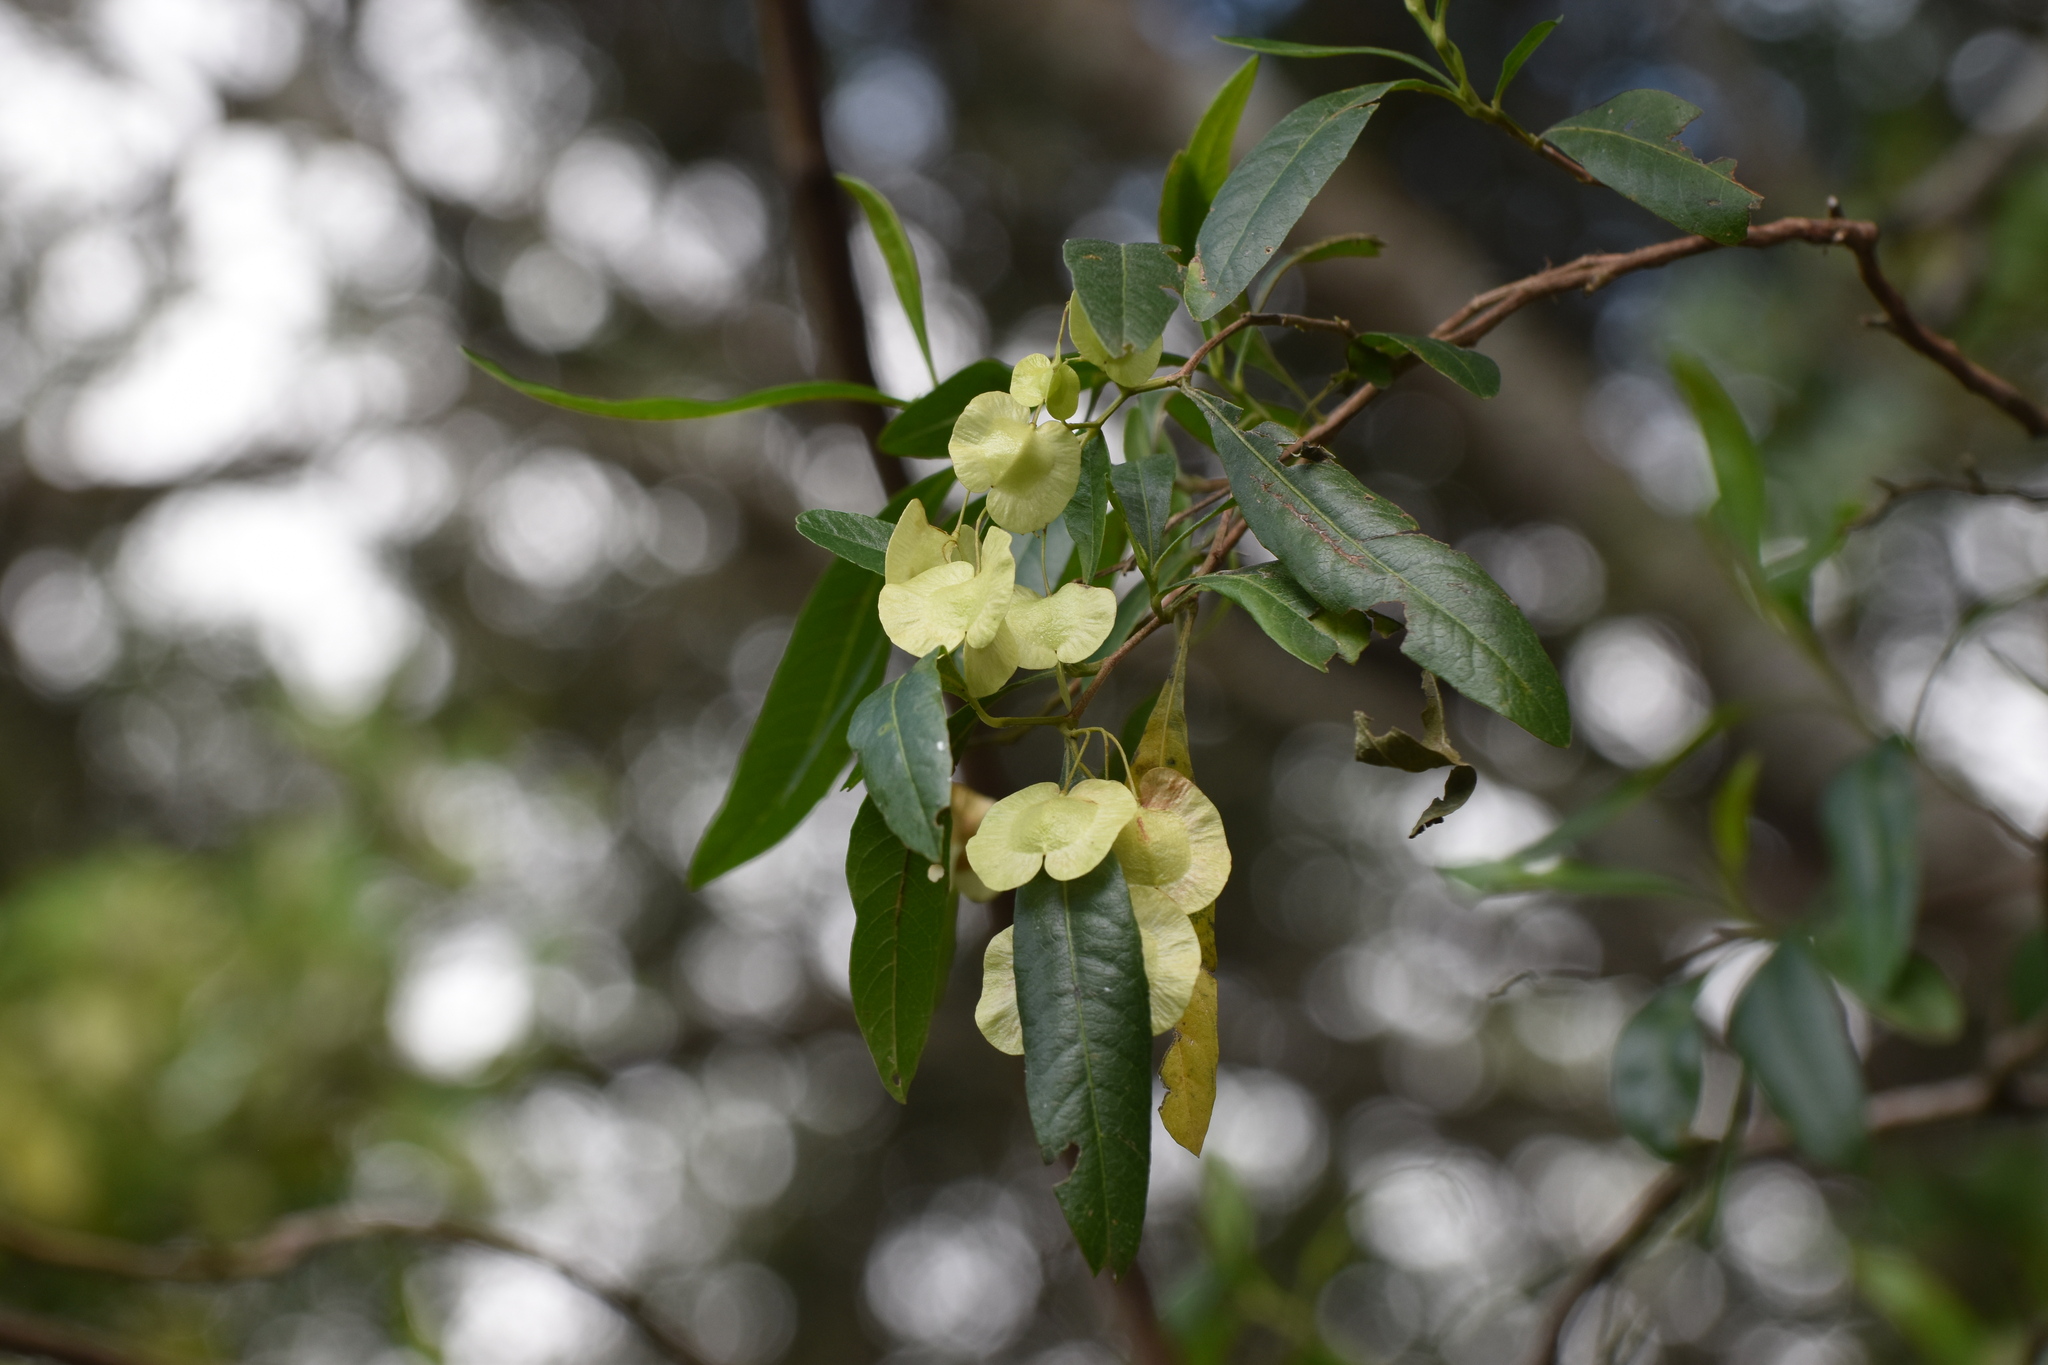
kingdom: Plantae
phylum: Tracheophyta
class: Magnoliopsida
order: Sapindales
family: Sapindaceae
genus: Dodonaea
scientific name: Dodonaea viscosa
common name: Hopbush
